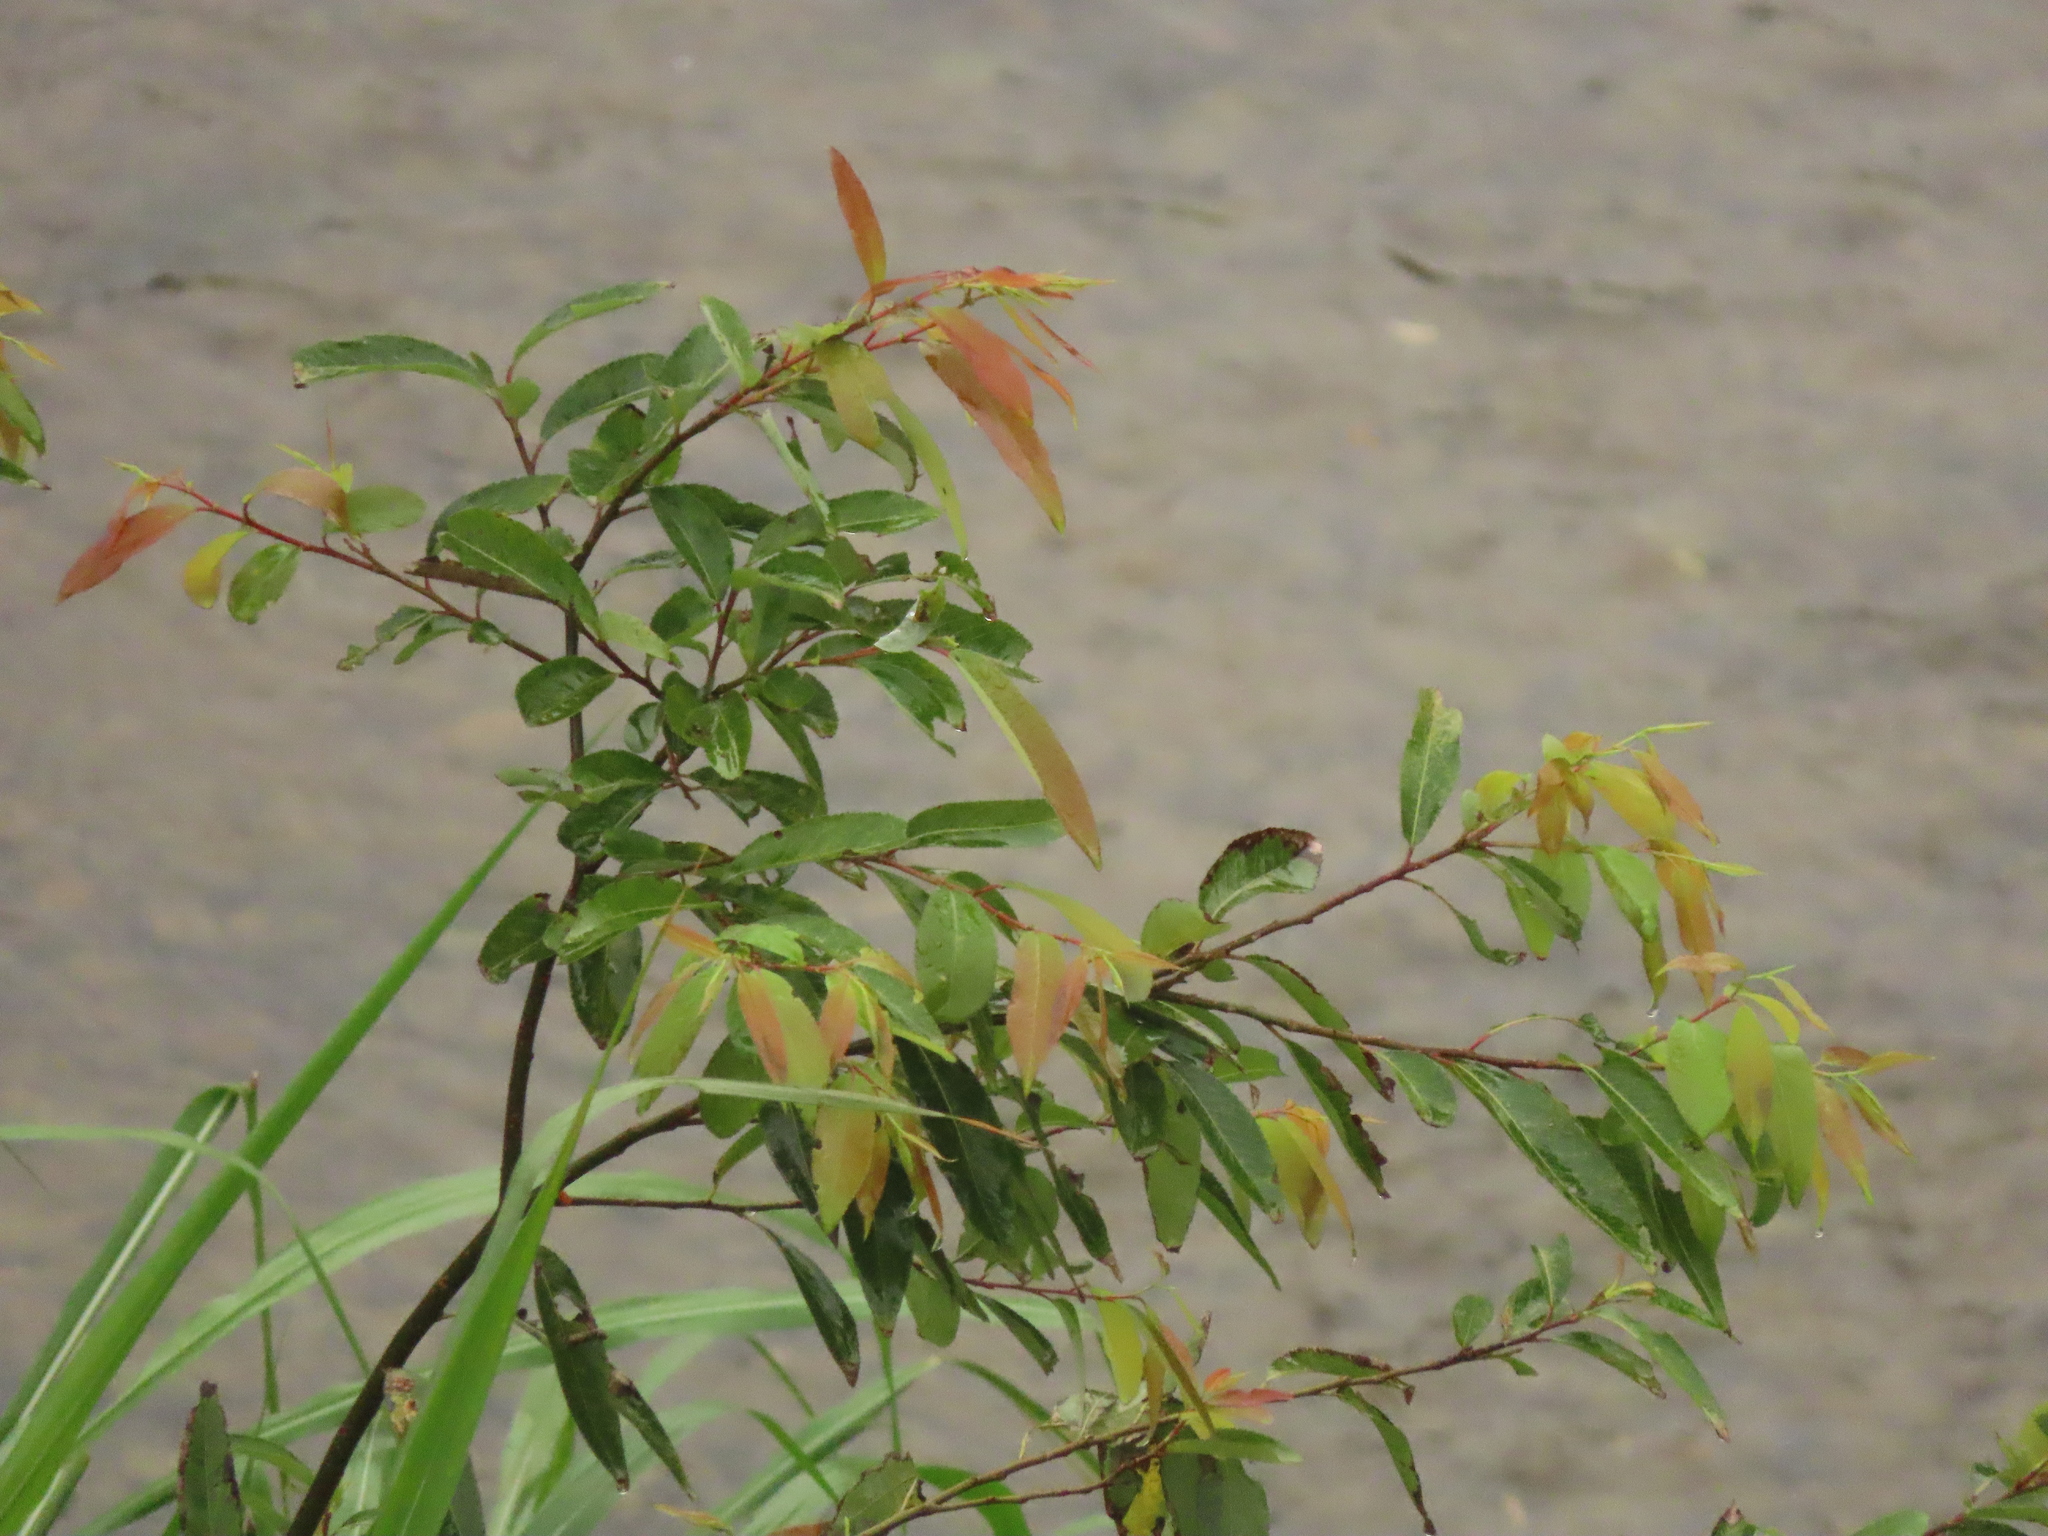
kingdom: Plantae
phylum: Tracheophyta
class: Magnoliopsida
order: Malpighiales
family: Salicaceae
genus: Salix
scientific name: Salix mesnyi
